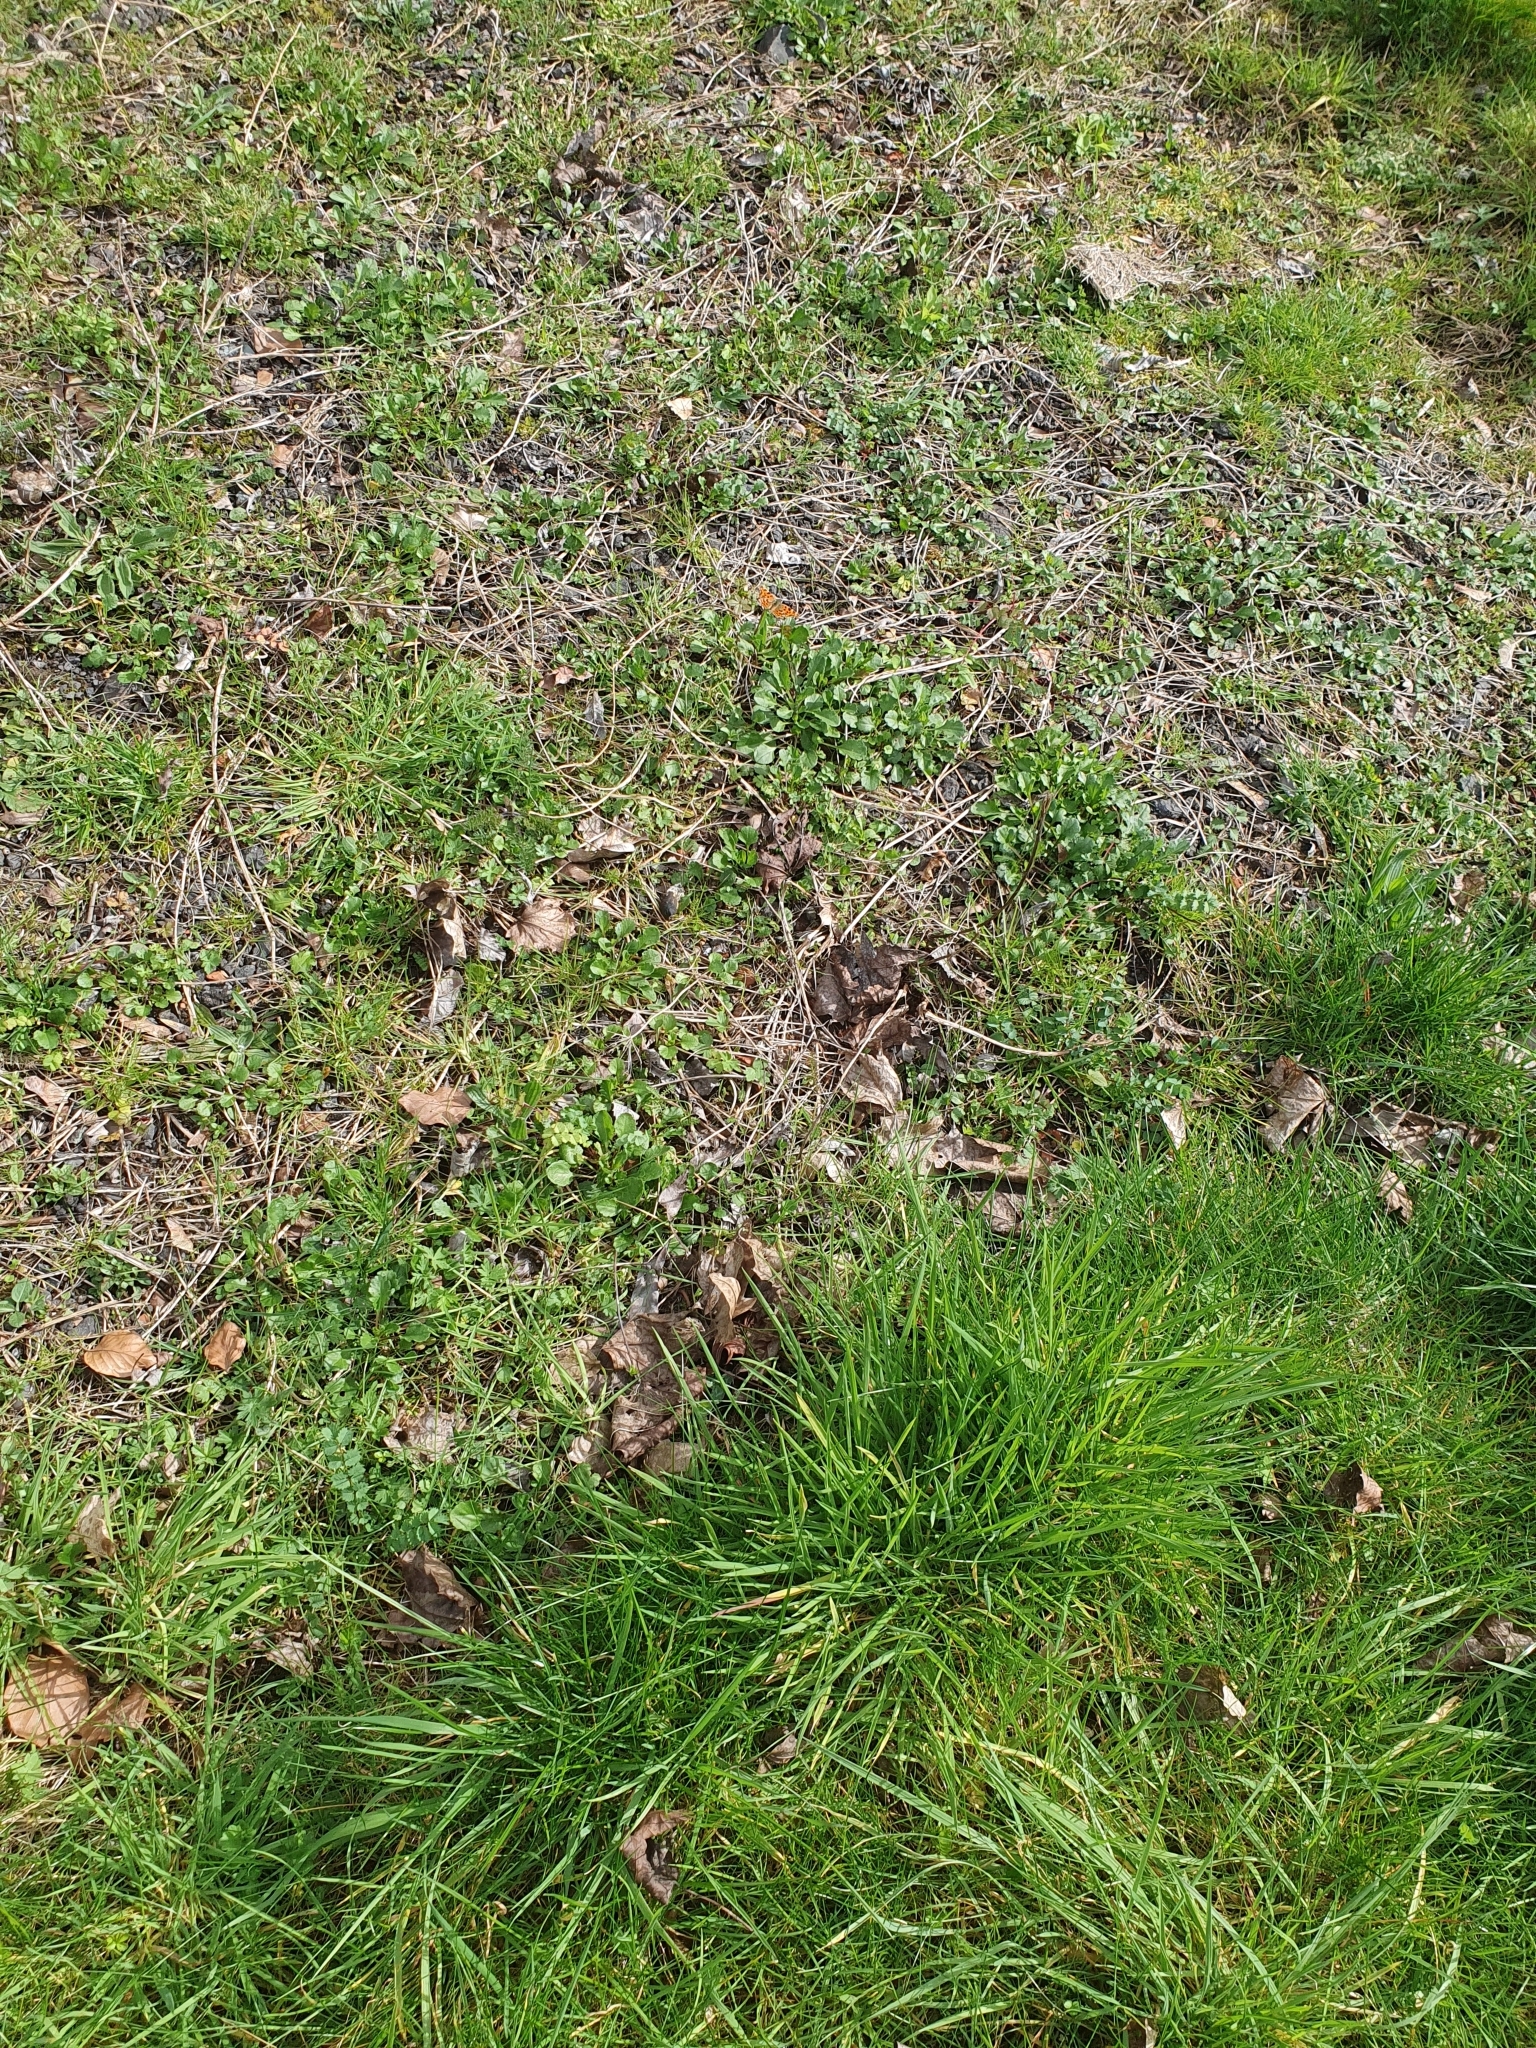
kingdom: Animalia
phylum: Arthropoda
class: Insecta
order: Lepidoptera
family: Nymphalidae
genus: Polygonia
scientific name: Polygonia c-album
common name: Comma
